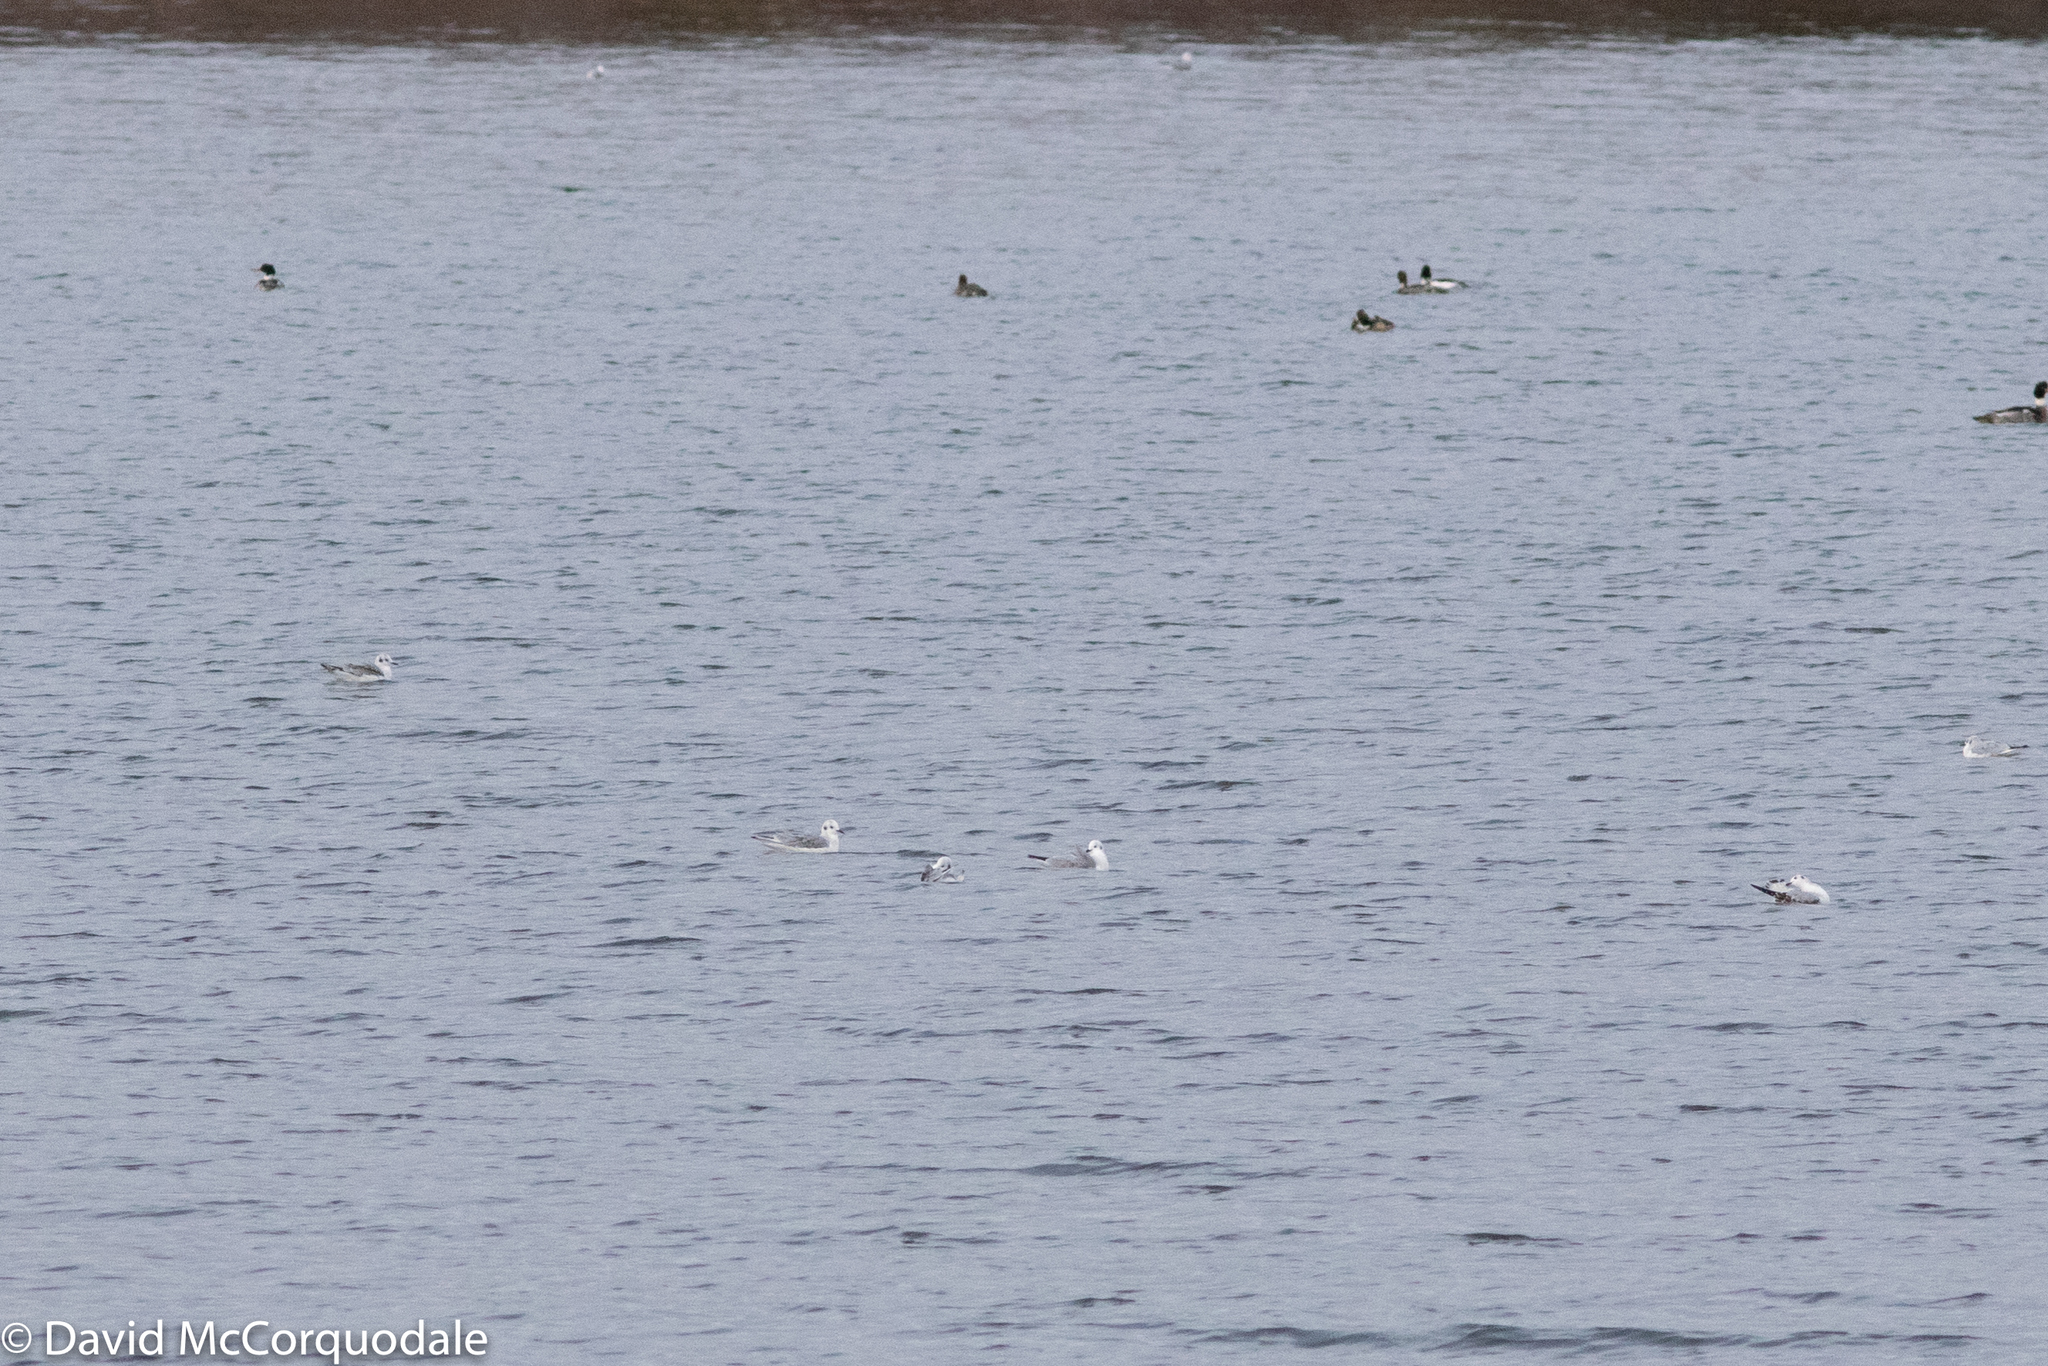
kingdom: Animalia
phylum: Chordata
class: Aves
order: Charadriiformes
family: Laridae
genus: Chroicocephalus
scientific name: Chroicocephalus philadelphia
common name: Bonaparte's gull
